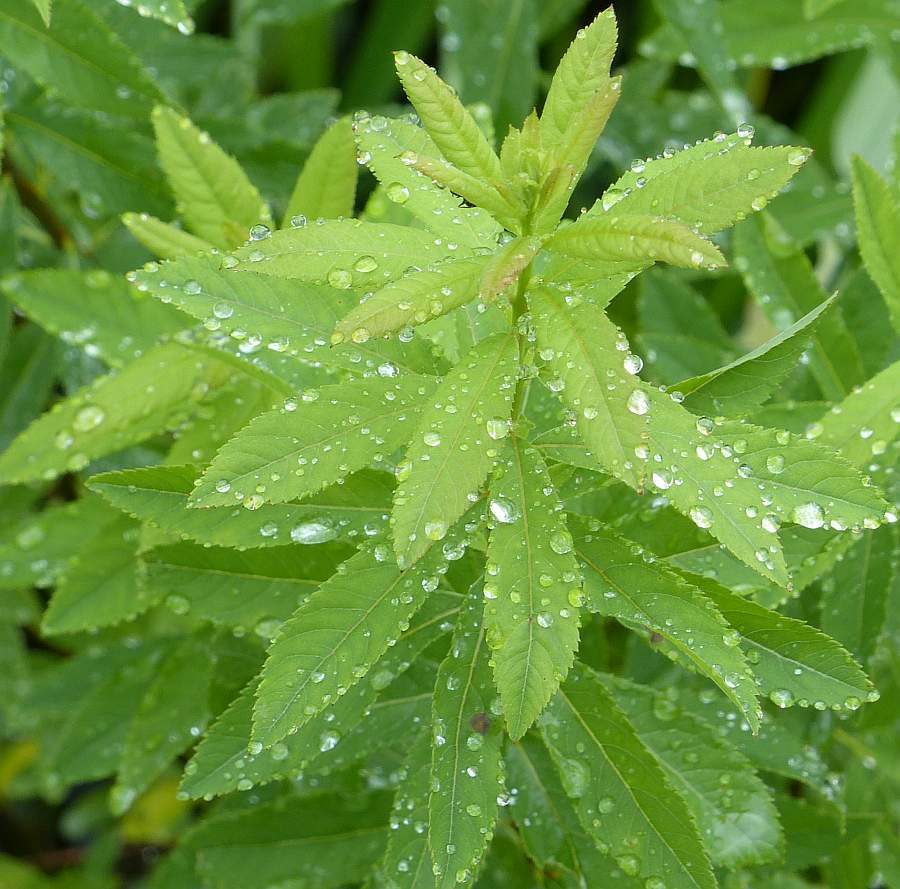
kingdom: Plantae
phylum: Tracheophyta
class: Magnoliopsida
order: Rosales
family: Rosaceae
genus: Spiraea
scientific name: Spiraea alba
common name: Pale bridewort
